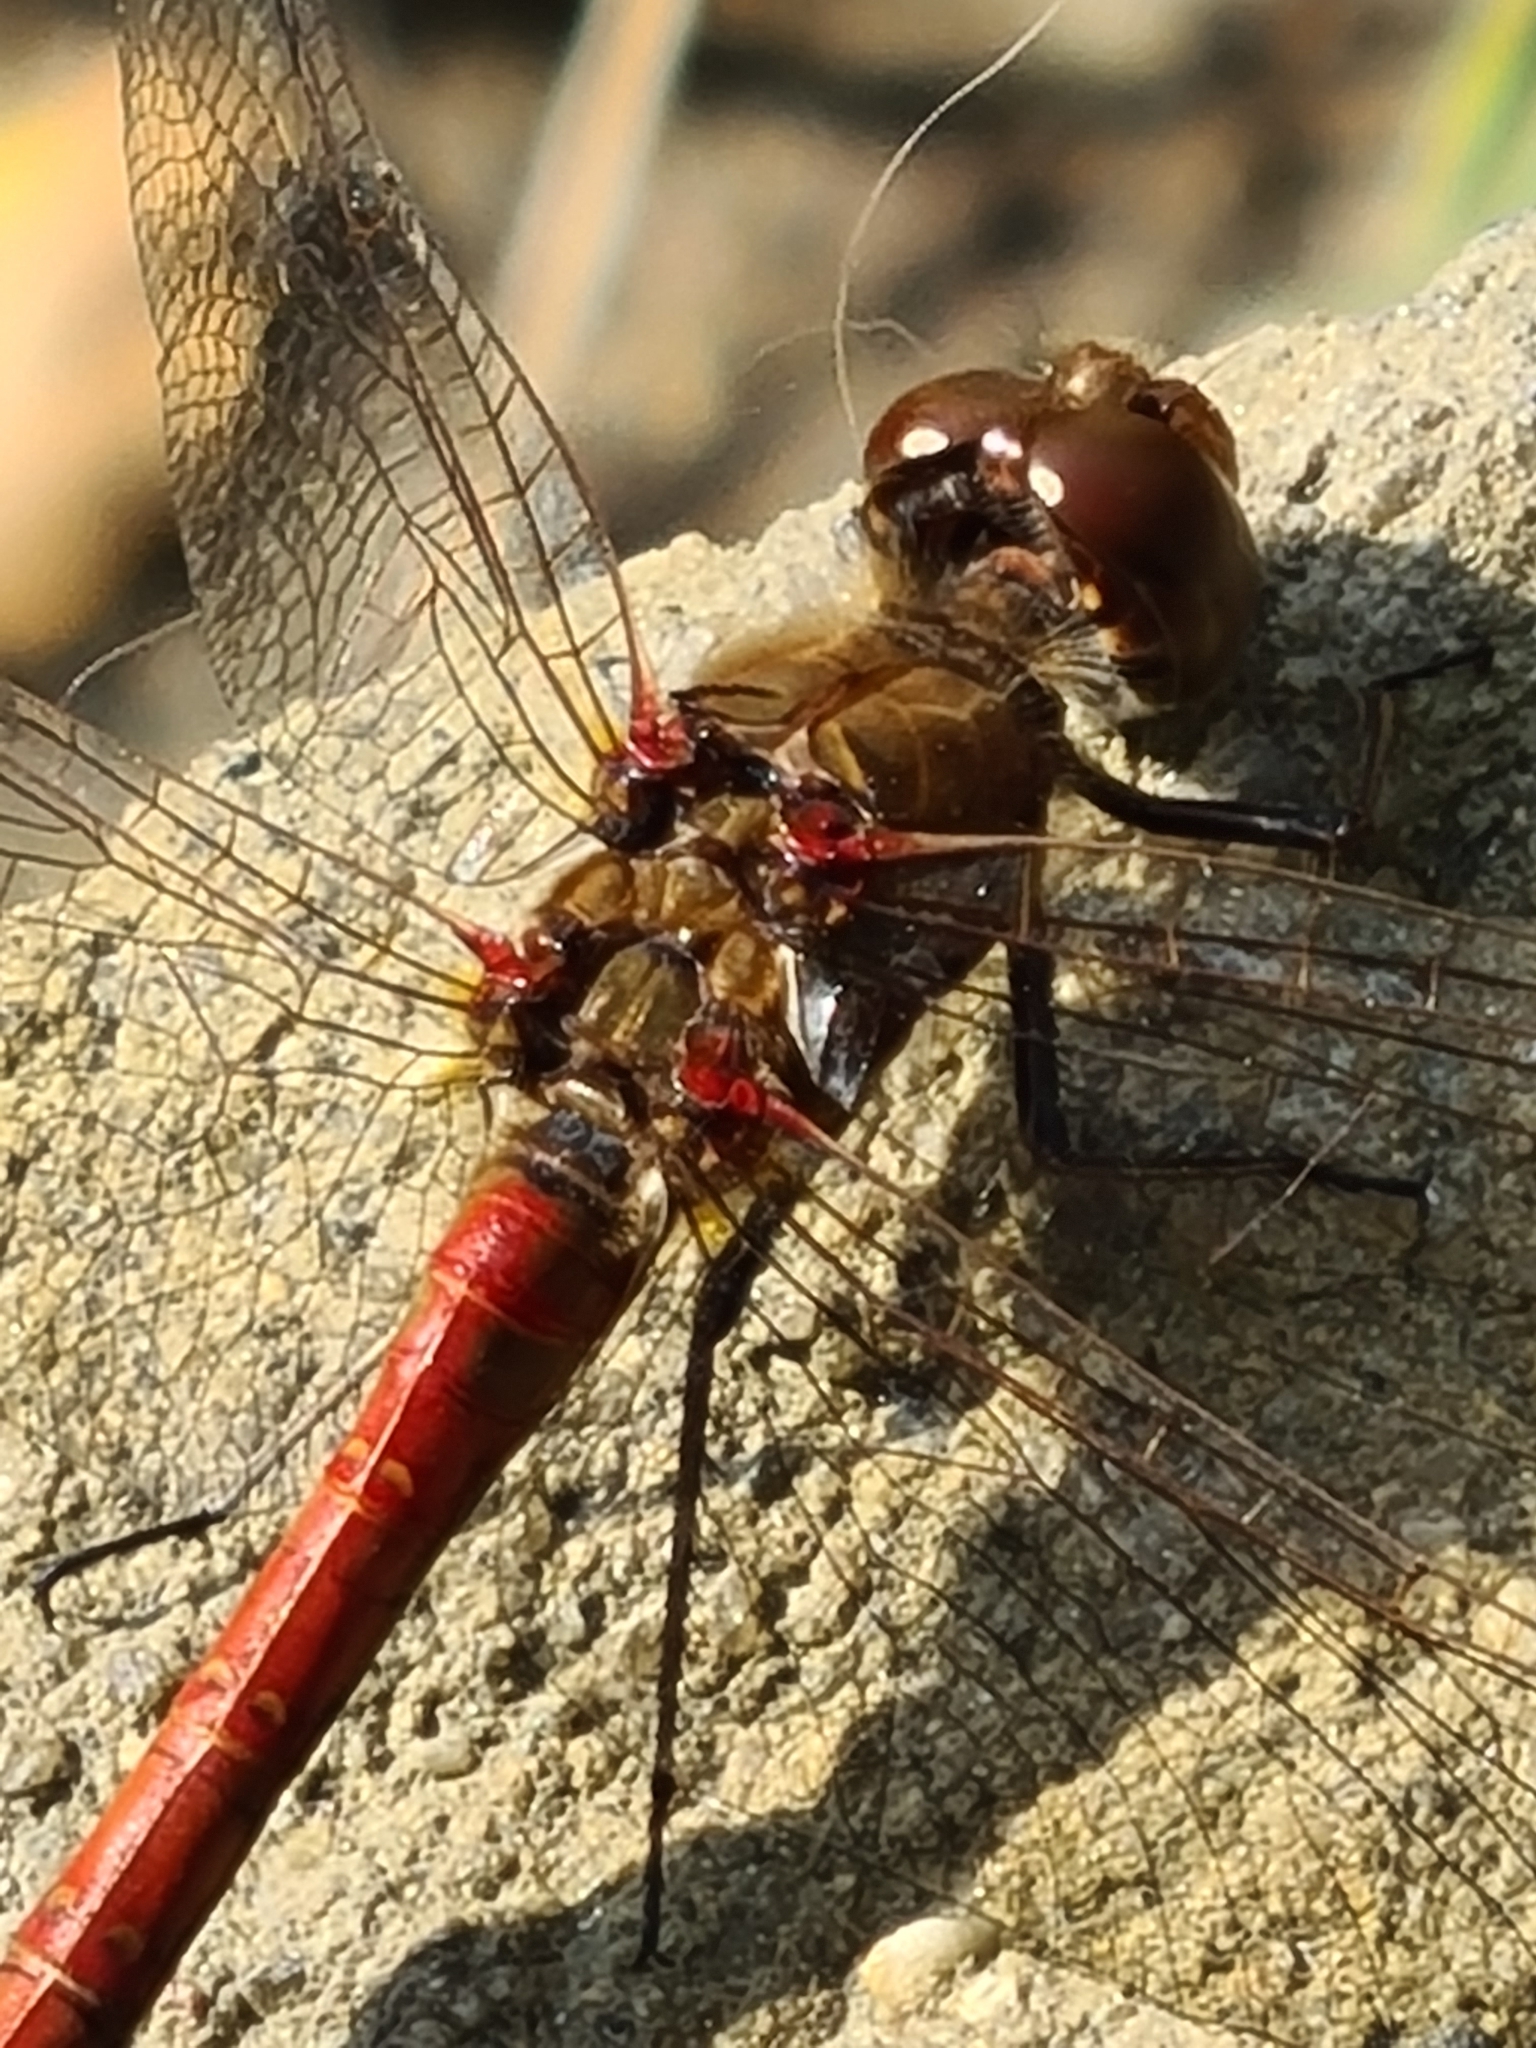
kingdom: Animalia
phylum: Arthropoda
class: Insecta
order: Odonata
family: Libellulidae
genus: Sympetrum
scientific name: Sympetrum striolatum
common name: Common darter
